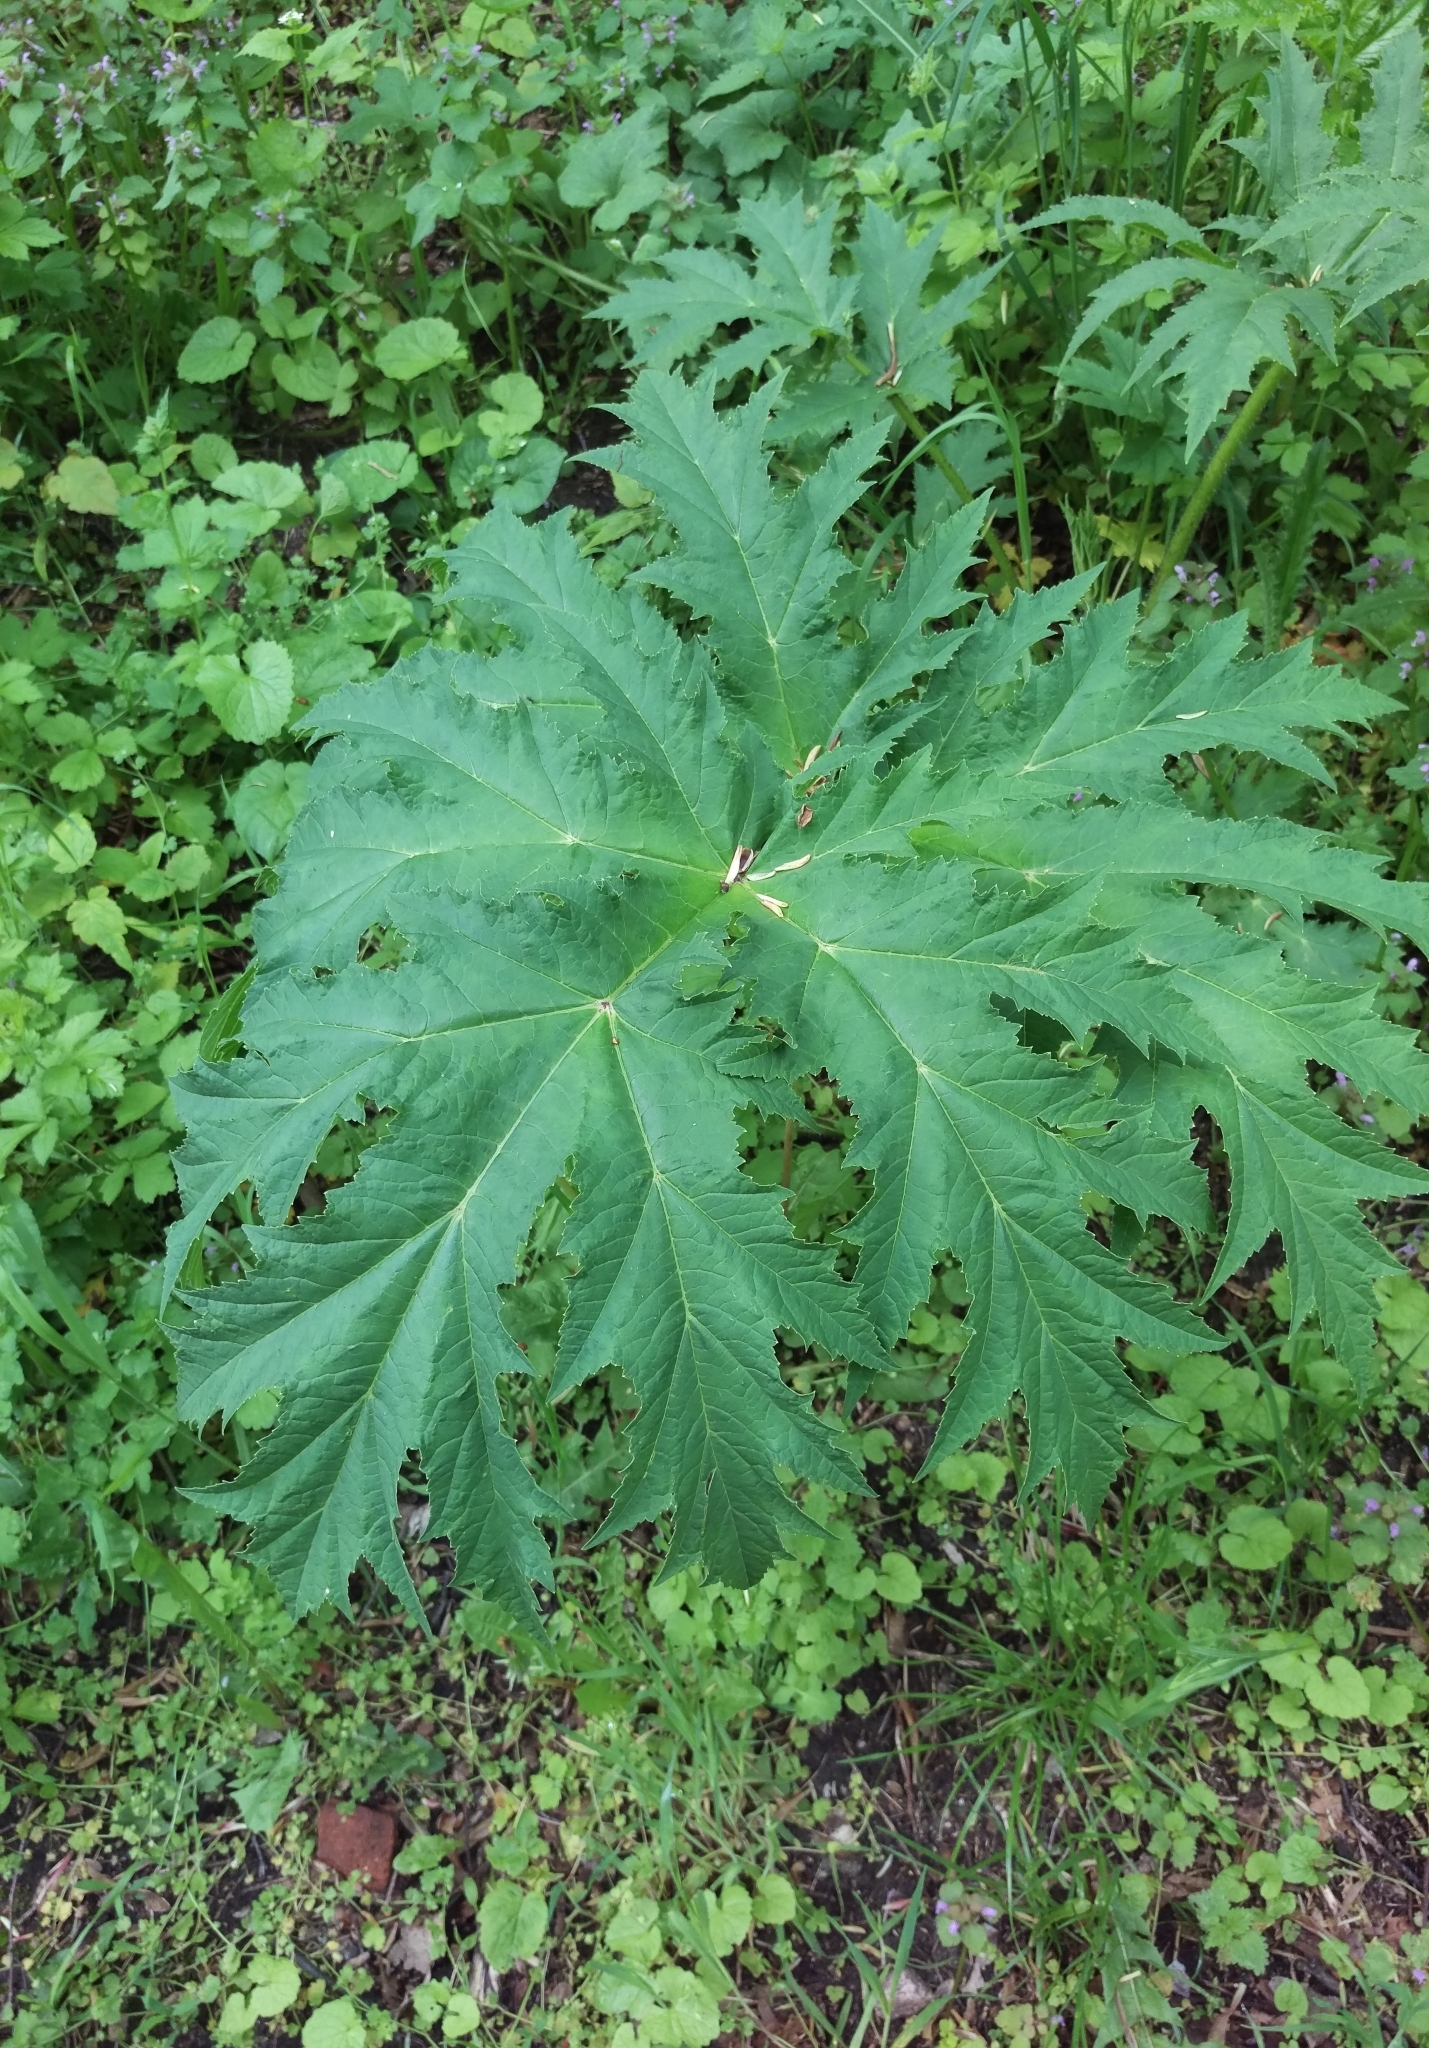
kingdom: Plantae
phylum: Tracheophyta
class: Magnoliopsida
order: Apiales
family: Apiaceae
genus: Heracleum
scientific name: Heracleum mantegazzianum
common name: Giant hogweed
